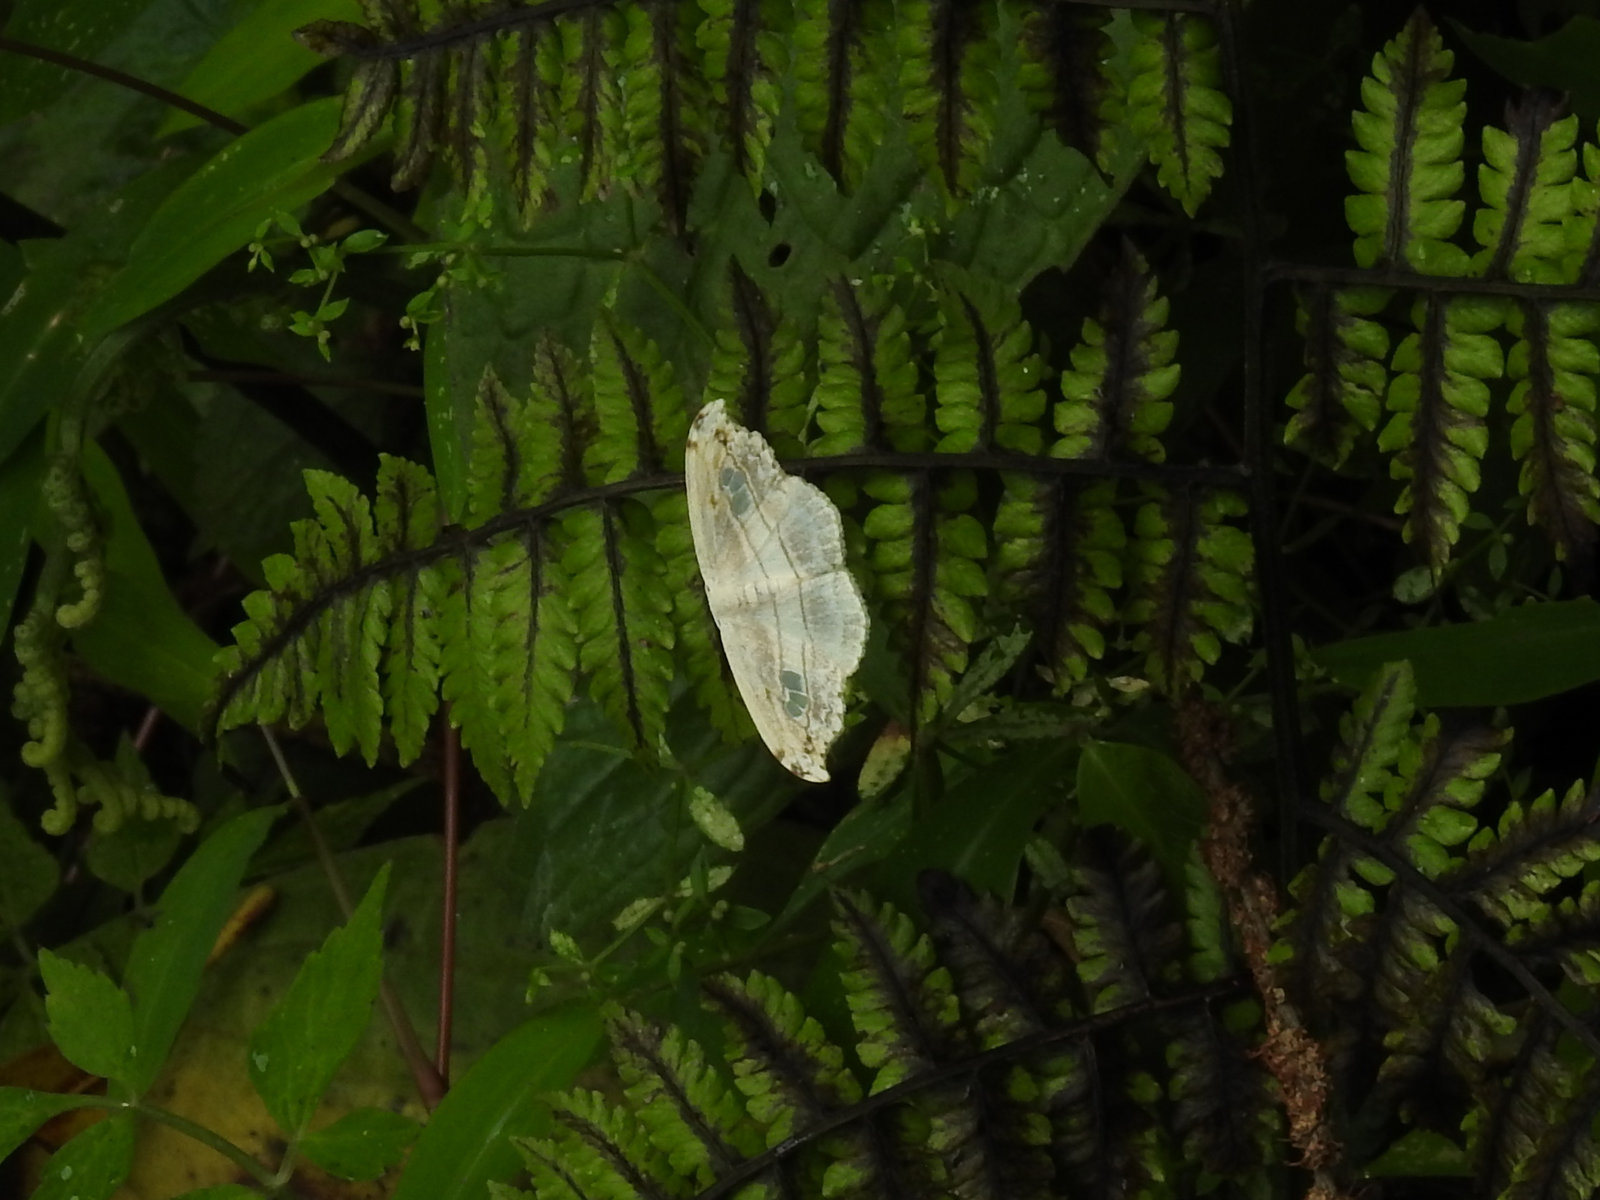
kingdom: Animalia
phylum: Arthropoda
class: Insecta
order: Lepidoptera
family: Drepanidae
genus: Leucoblepsis
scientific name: Leucoblepsis fenestraria
